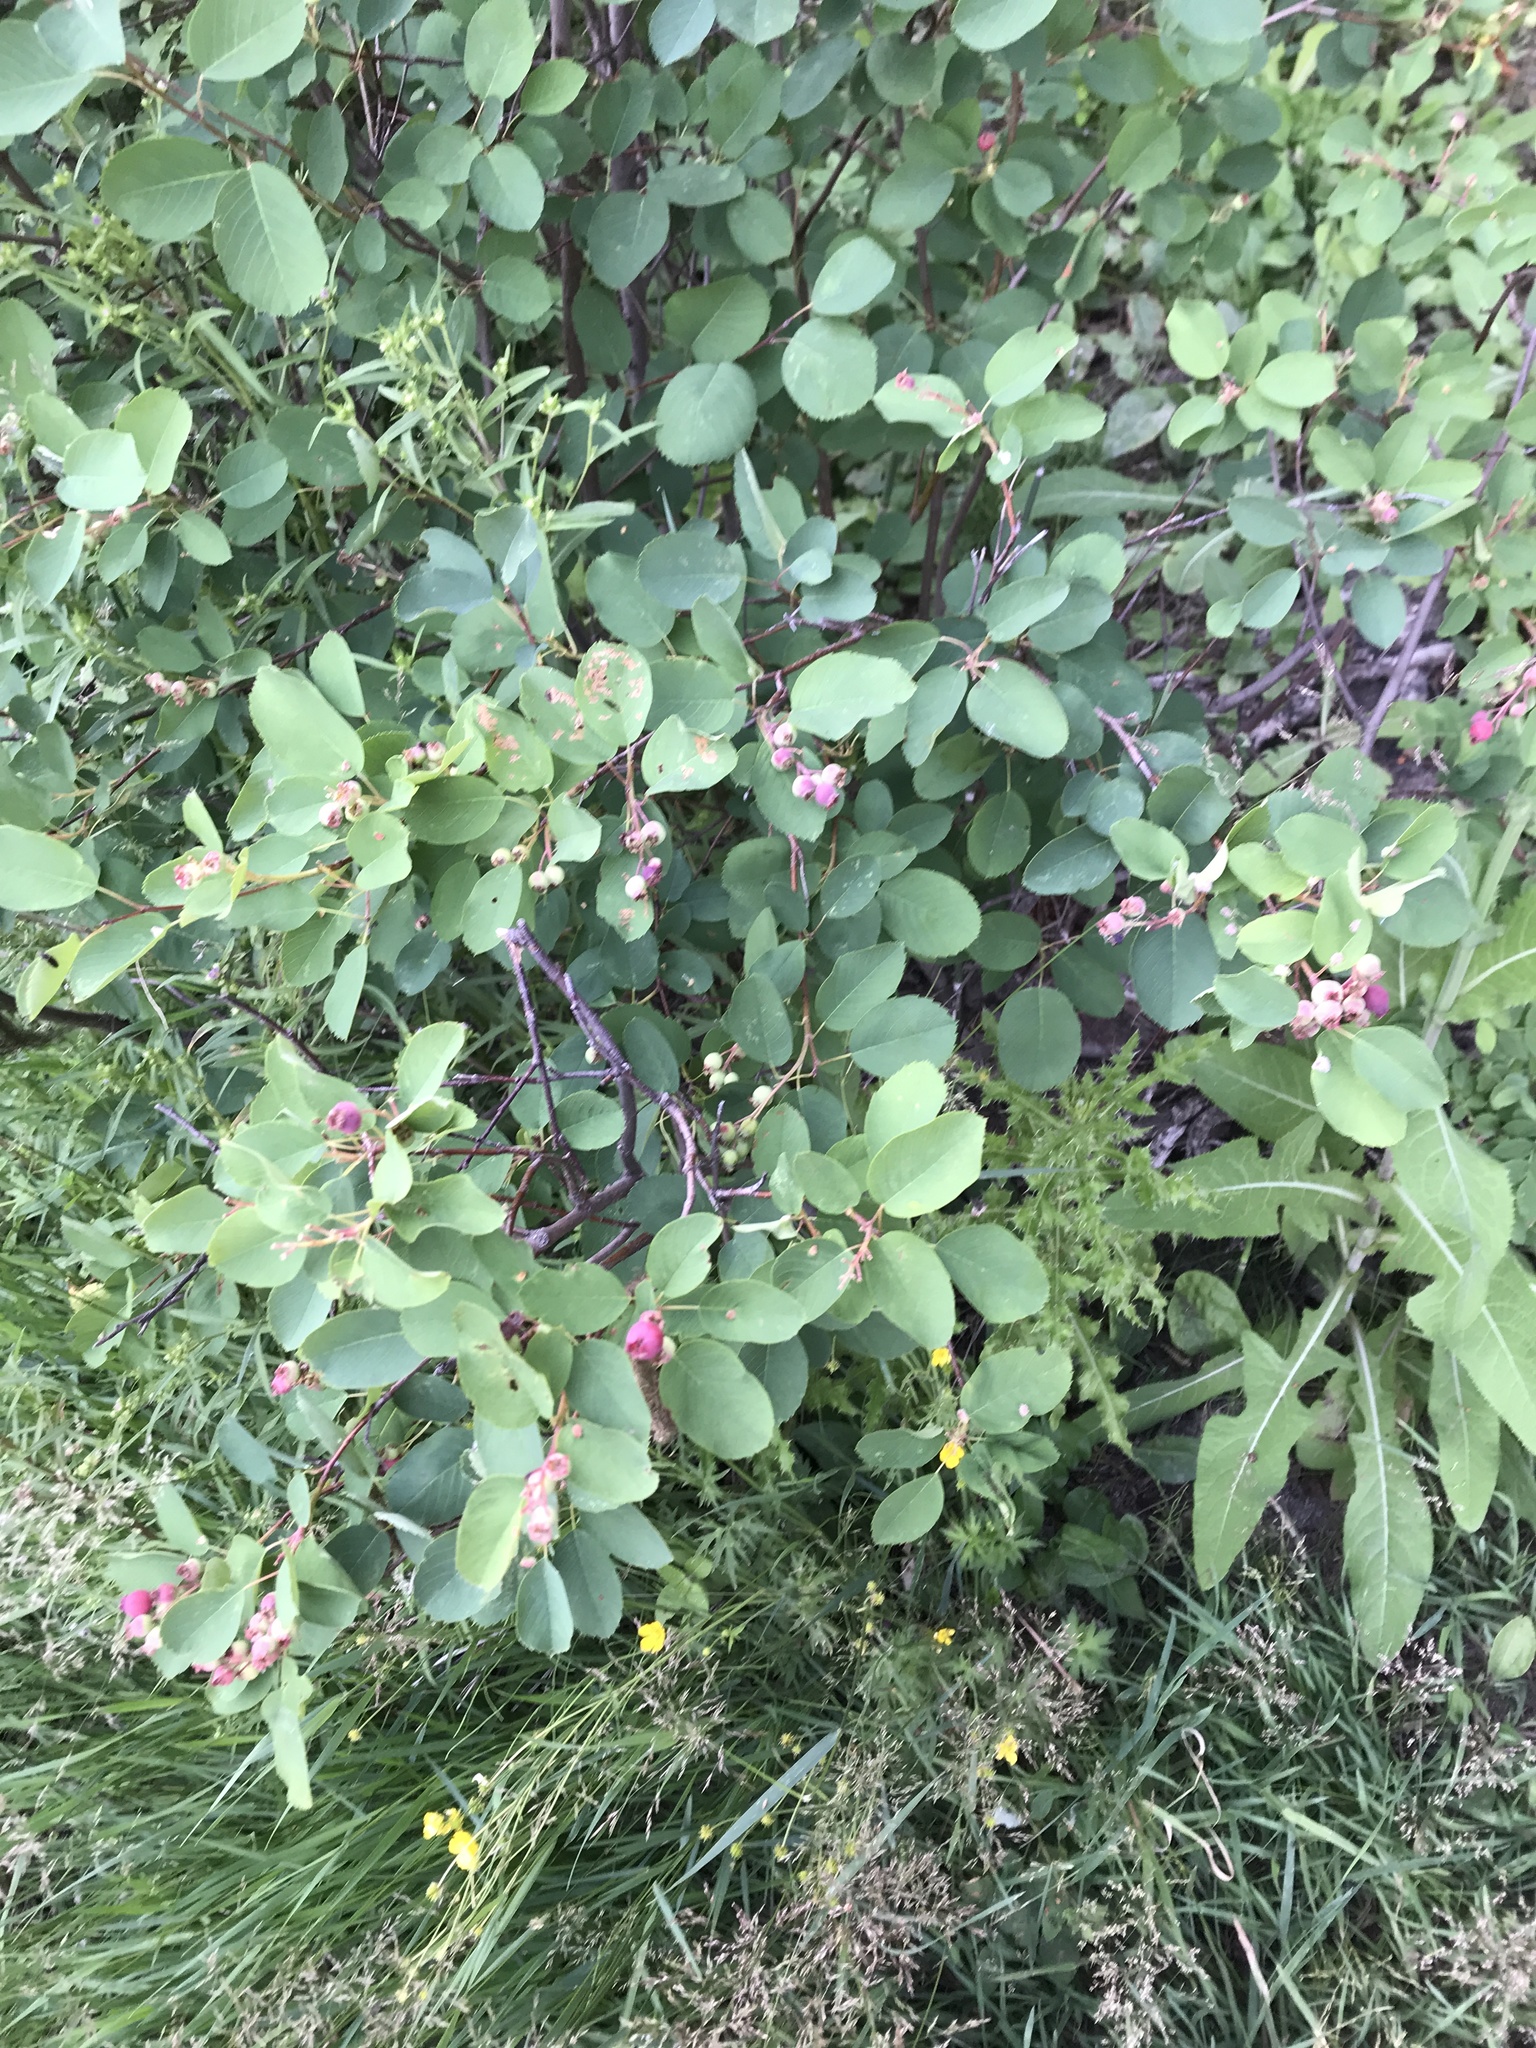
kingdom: Plantae
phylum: Tracheophyta
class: Magnoliopsida
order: Rosales
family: Rosaceae
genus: Amelanchier
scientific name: Amelanchier alnifolia
